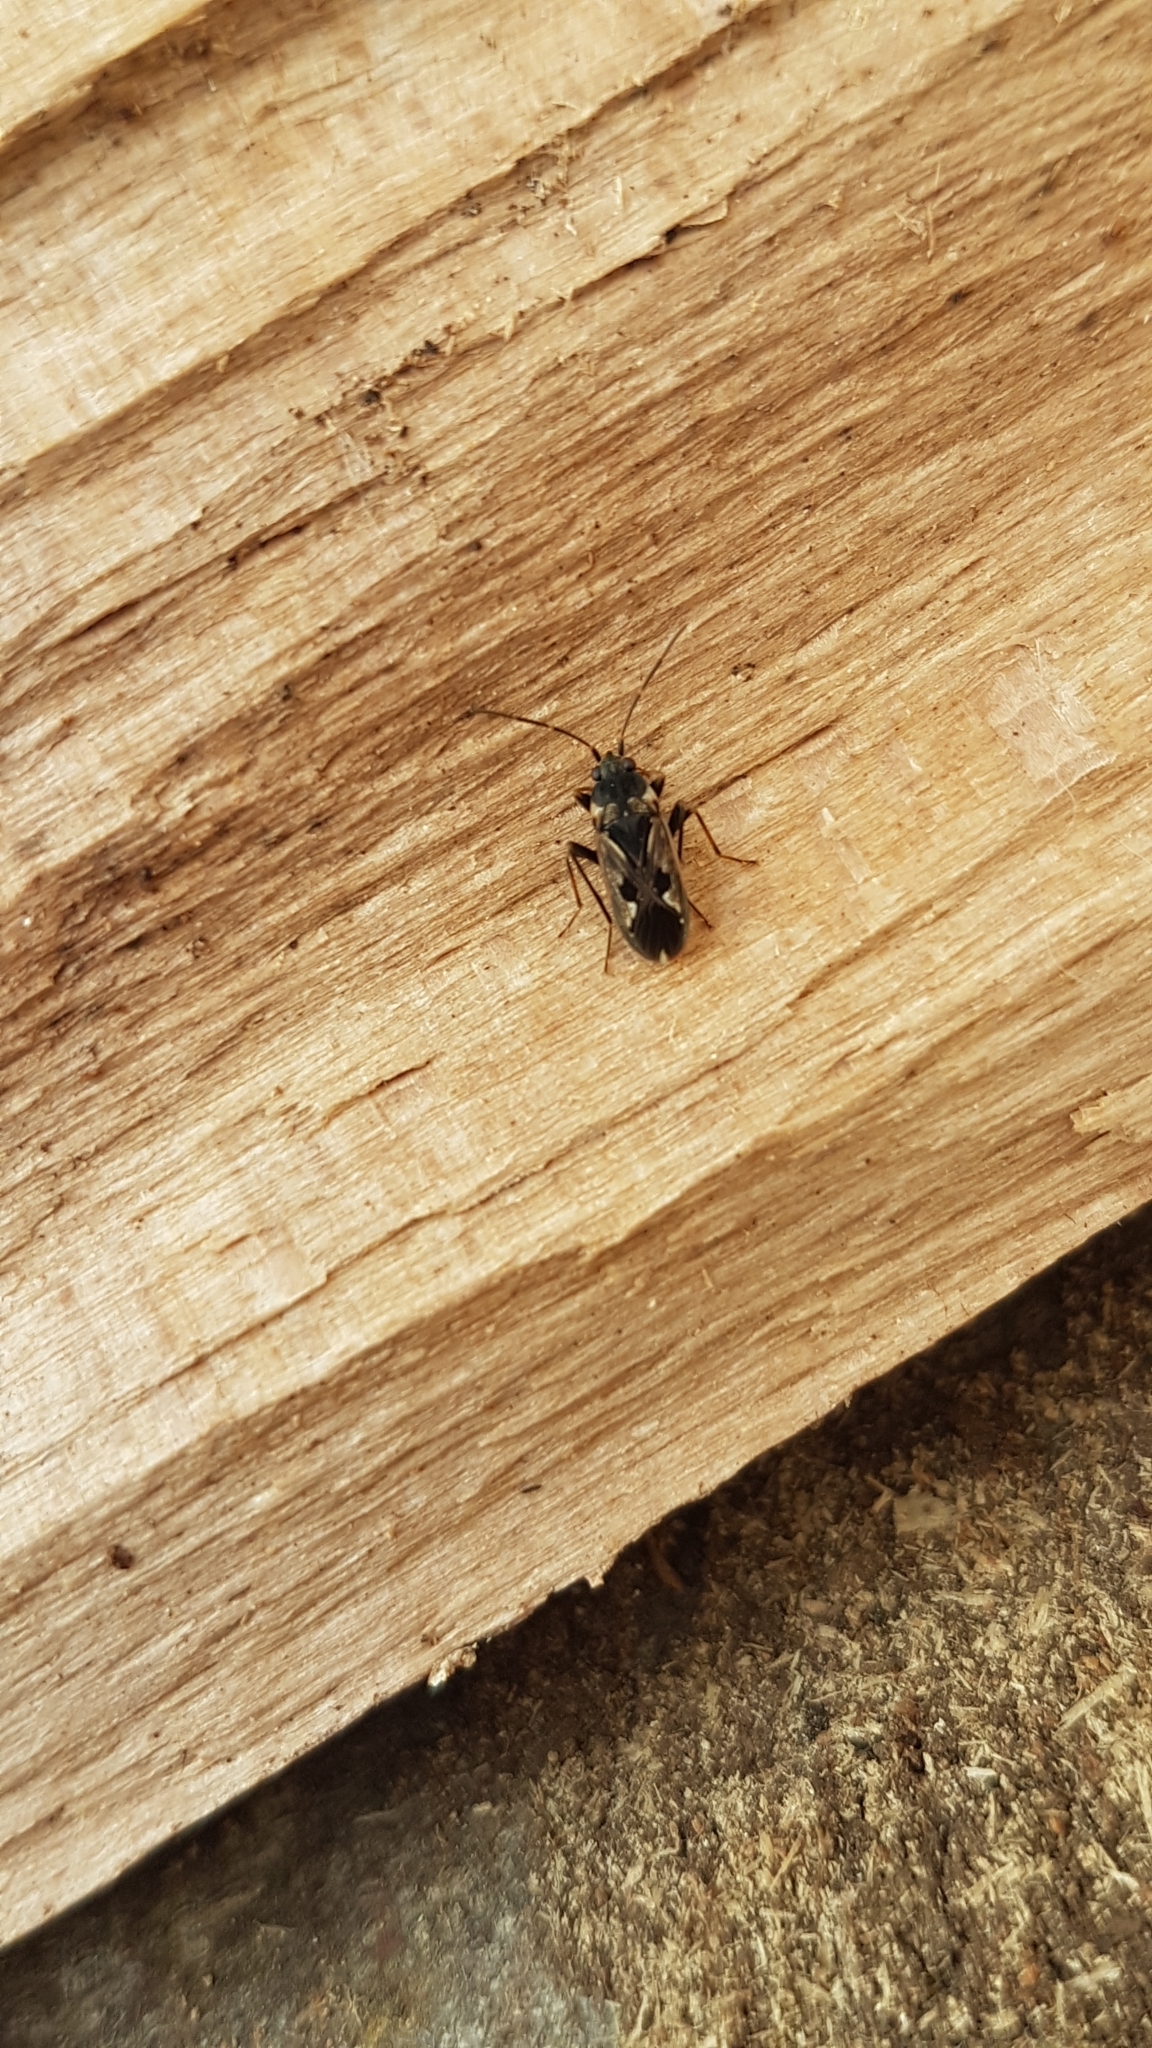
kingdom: Animalia
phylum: Arthropoda
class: Insecta
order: Hemiptera
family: Rhyparochromidae
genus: Rhyparochromus
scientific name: Rhyparochromus vulgaris
